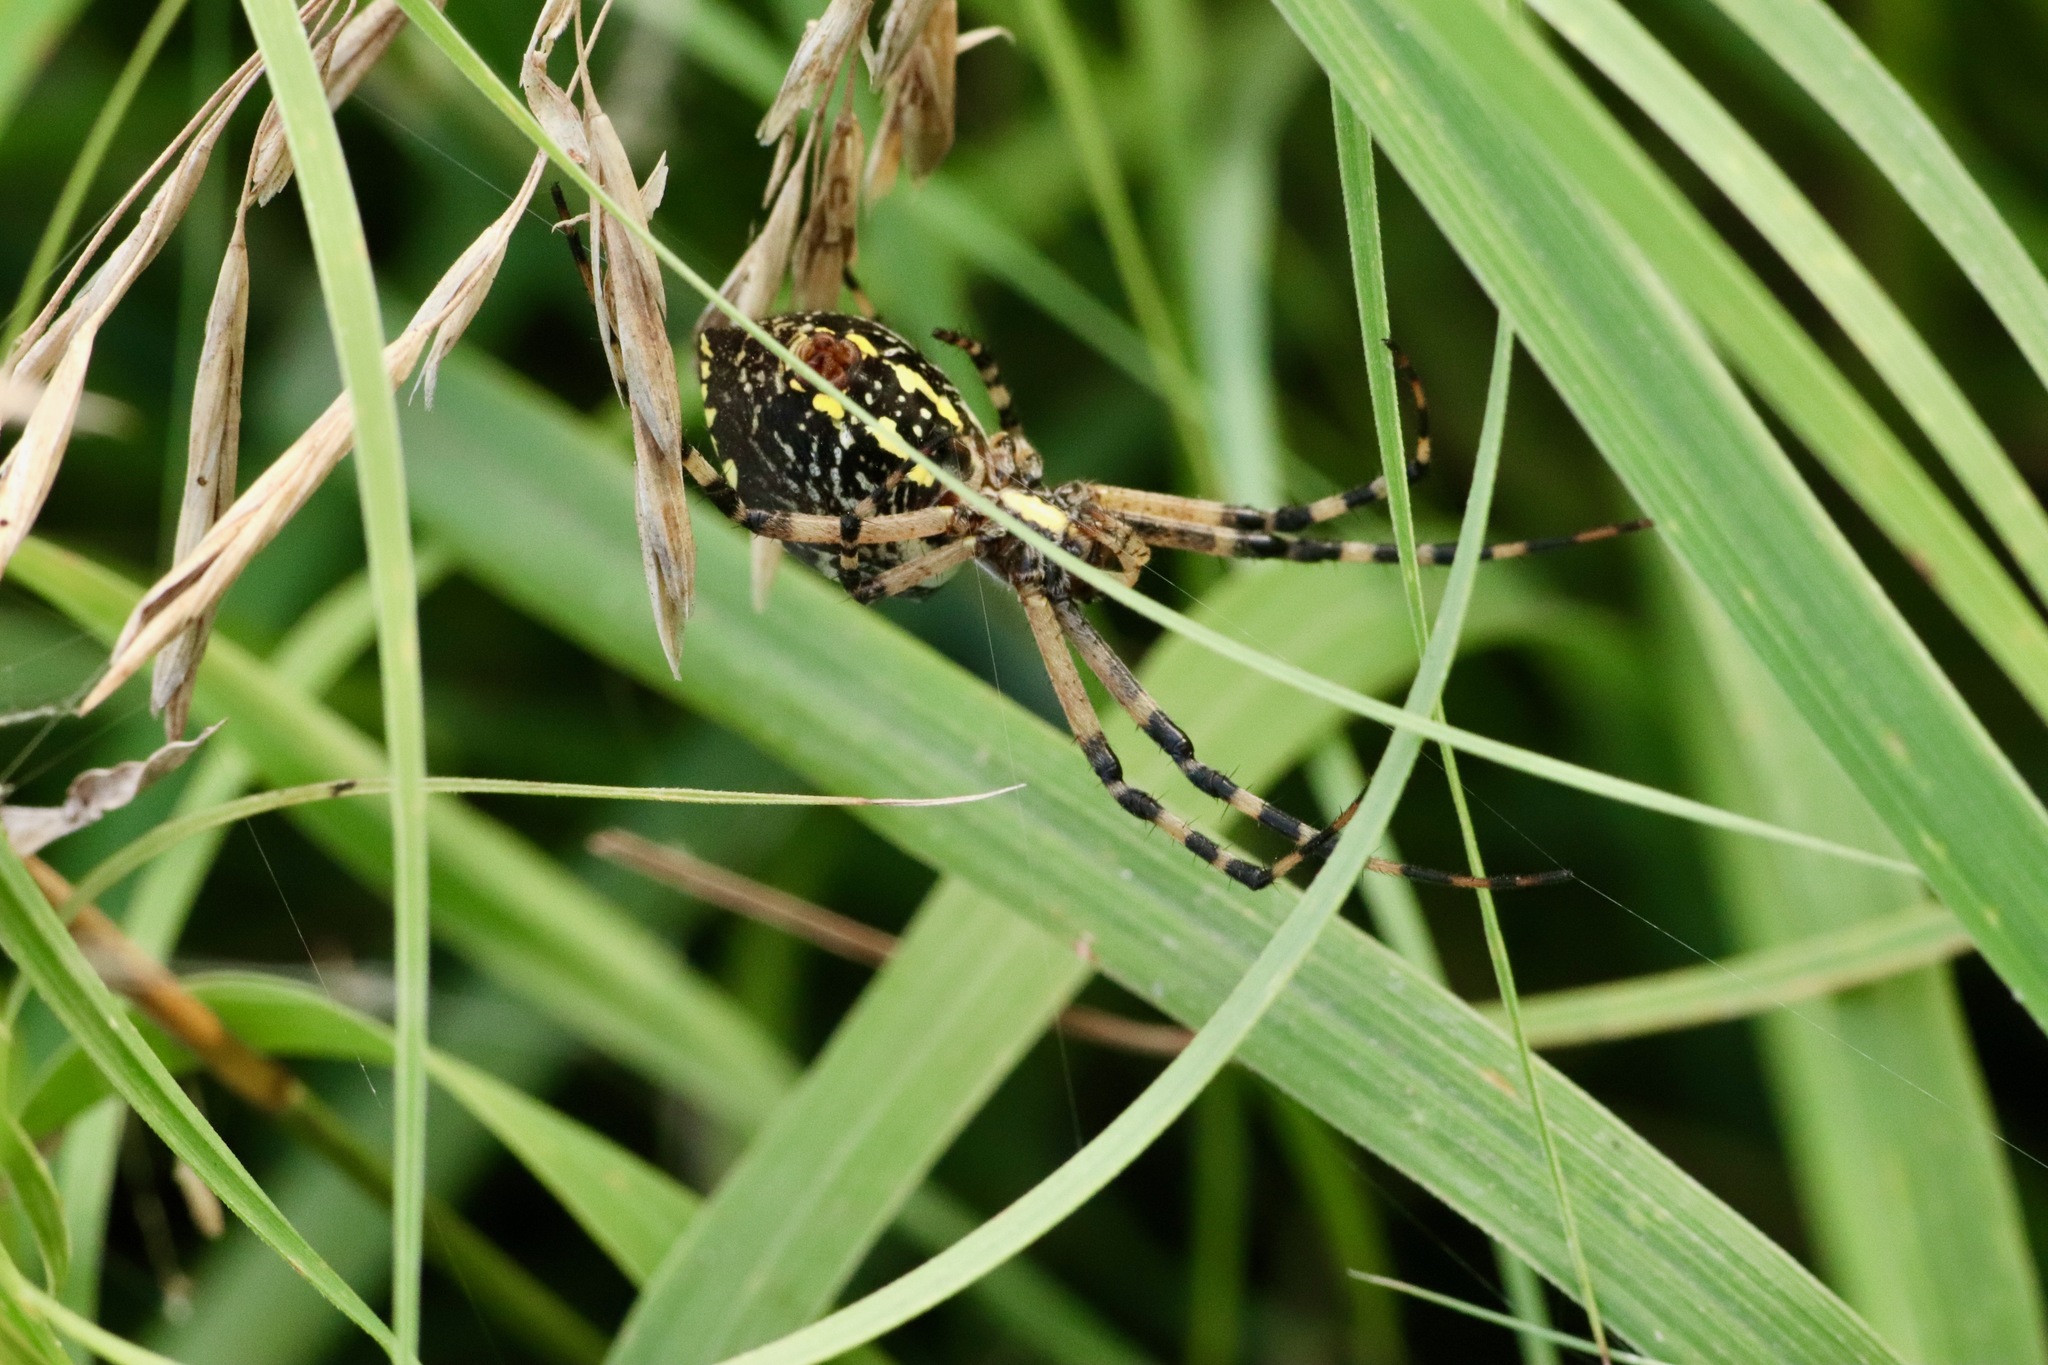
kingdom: Animalia
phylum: Arthropoda
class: Arachnida
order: Araneae
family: Araneidae
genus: Argiope
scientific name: Argiope aurantia
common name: Orb weavers
